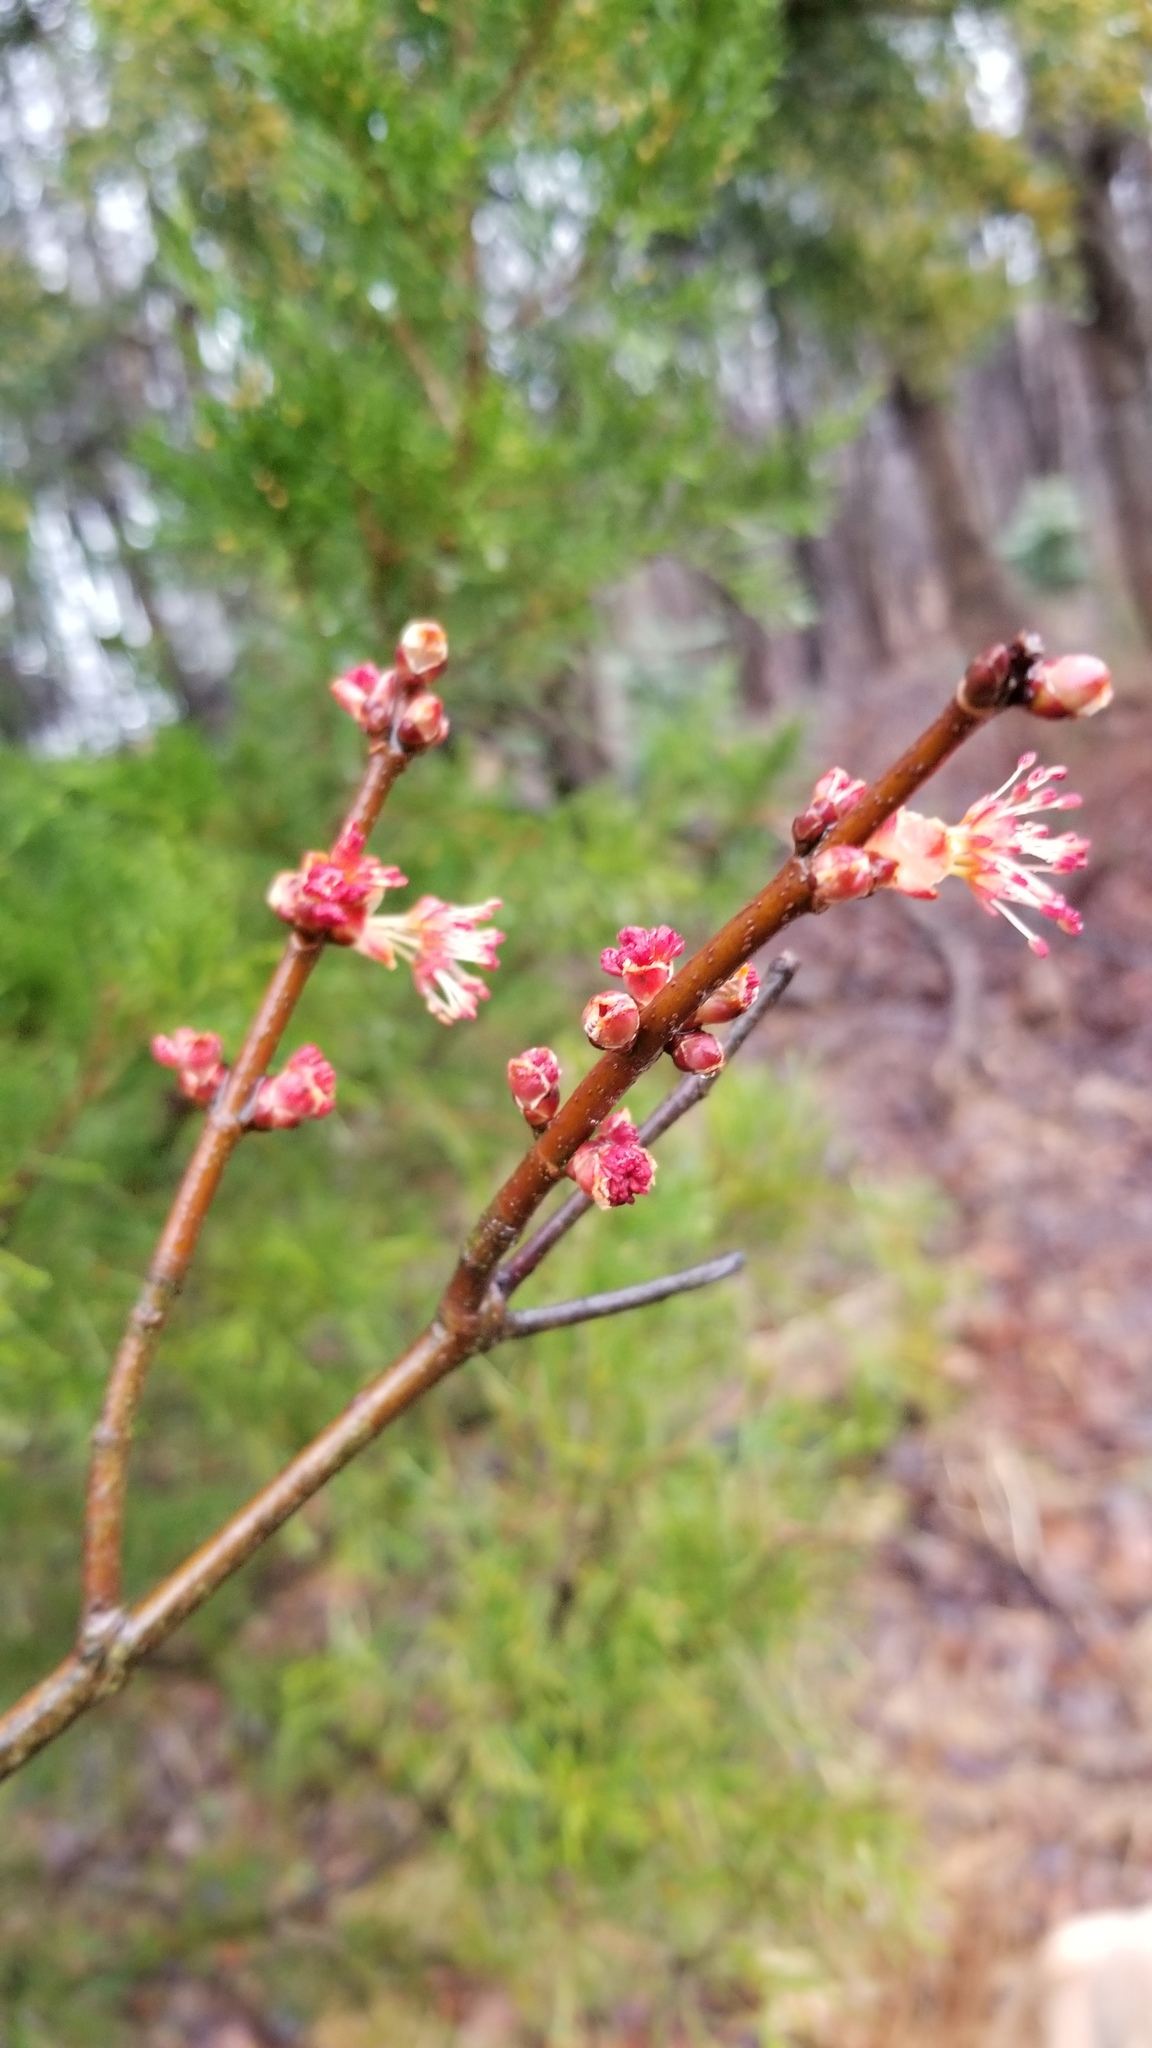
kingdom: Plantae
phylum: Tracheophyta
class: Magnoliopsida
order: Sapindales
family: Sapindaceae
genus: Acer
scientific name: Acer rubrum
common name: Red maple
